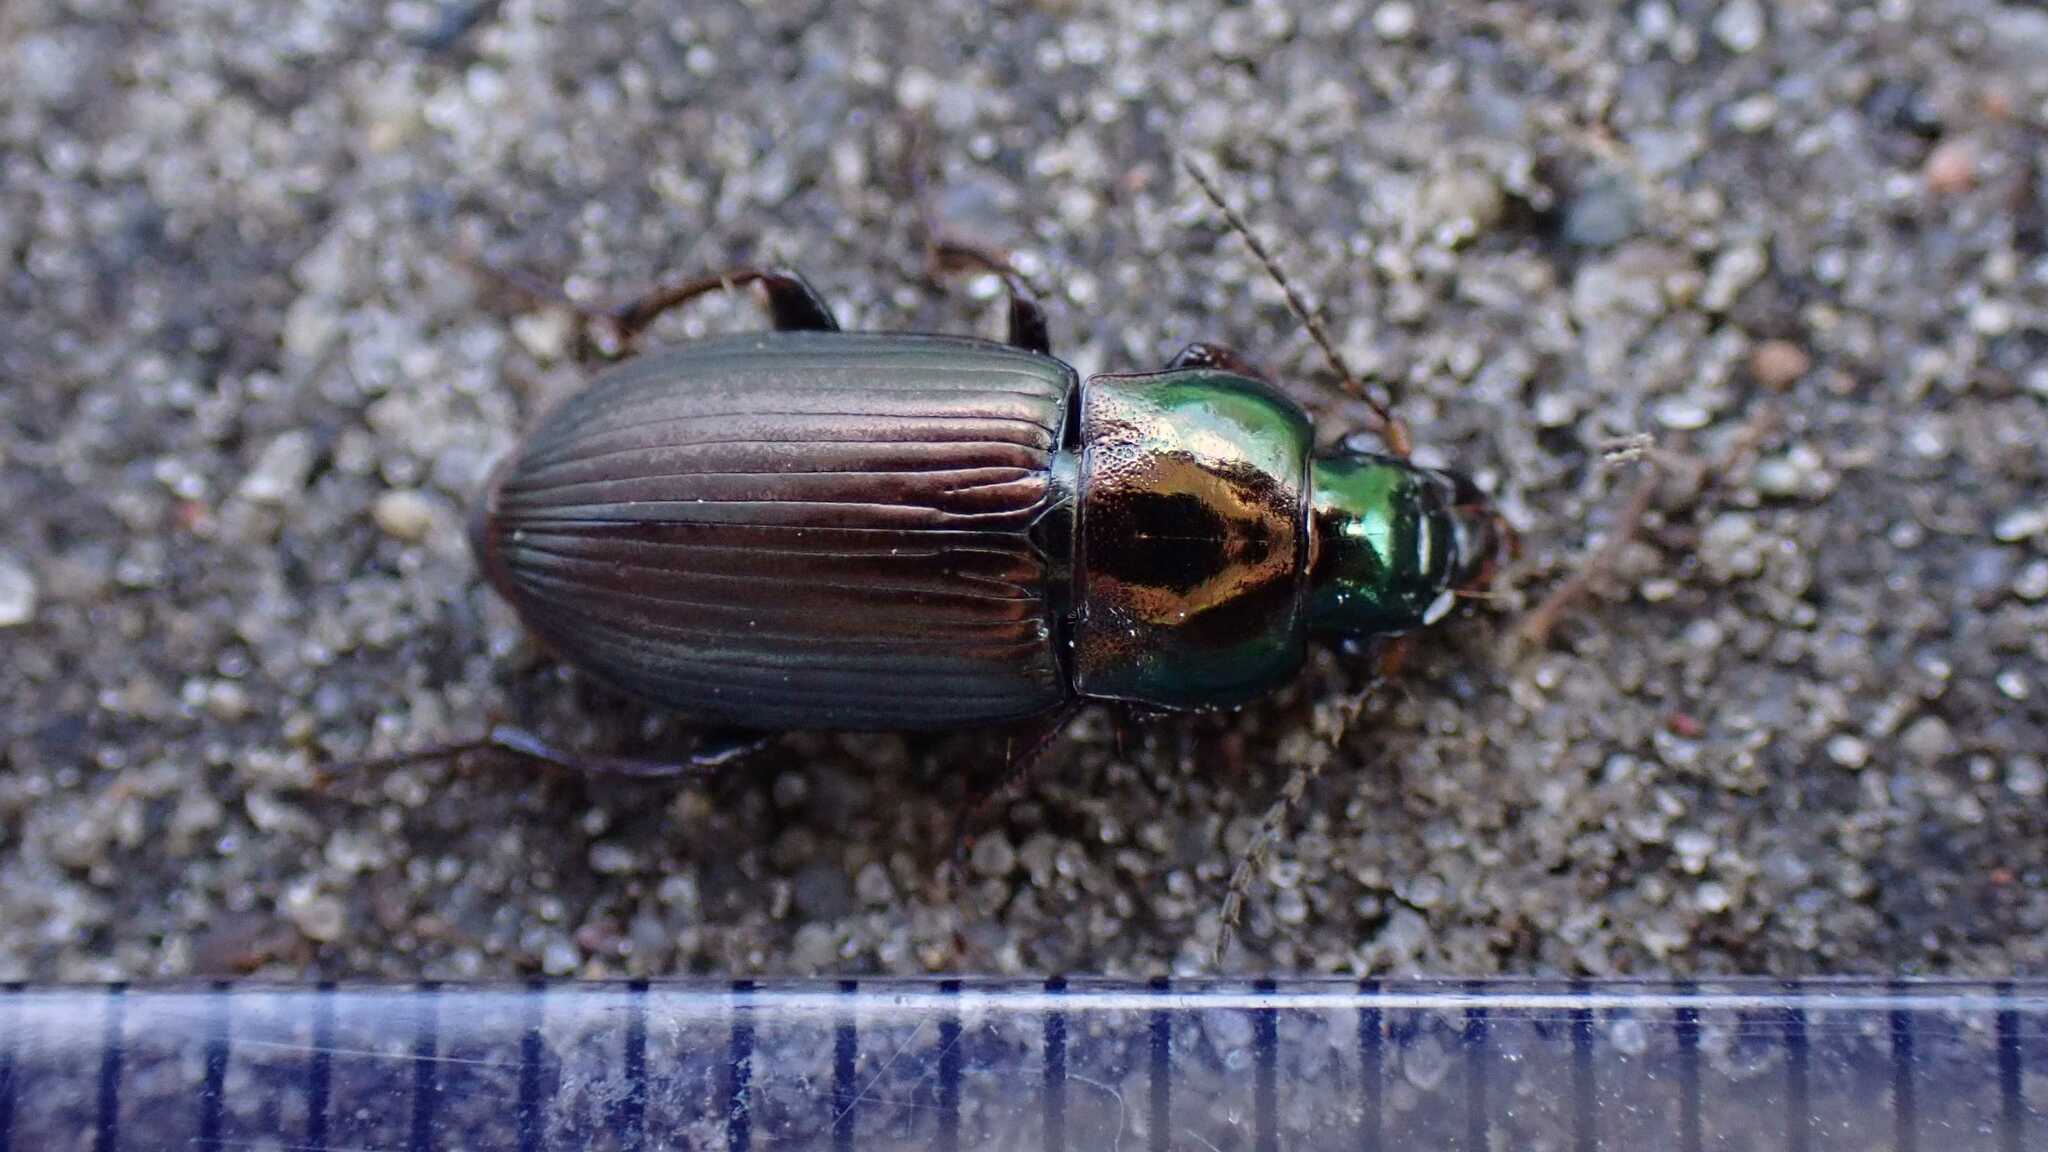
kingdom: Animalia
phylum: Arthropoda
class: Insecta
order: Coleoptera
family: Carabidae
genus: Harpalus
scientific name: Harpalus distinguendus
